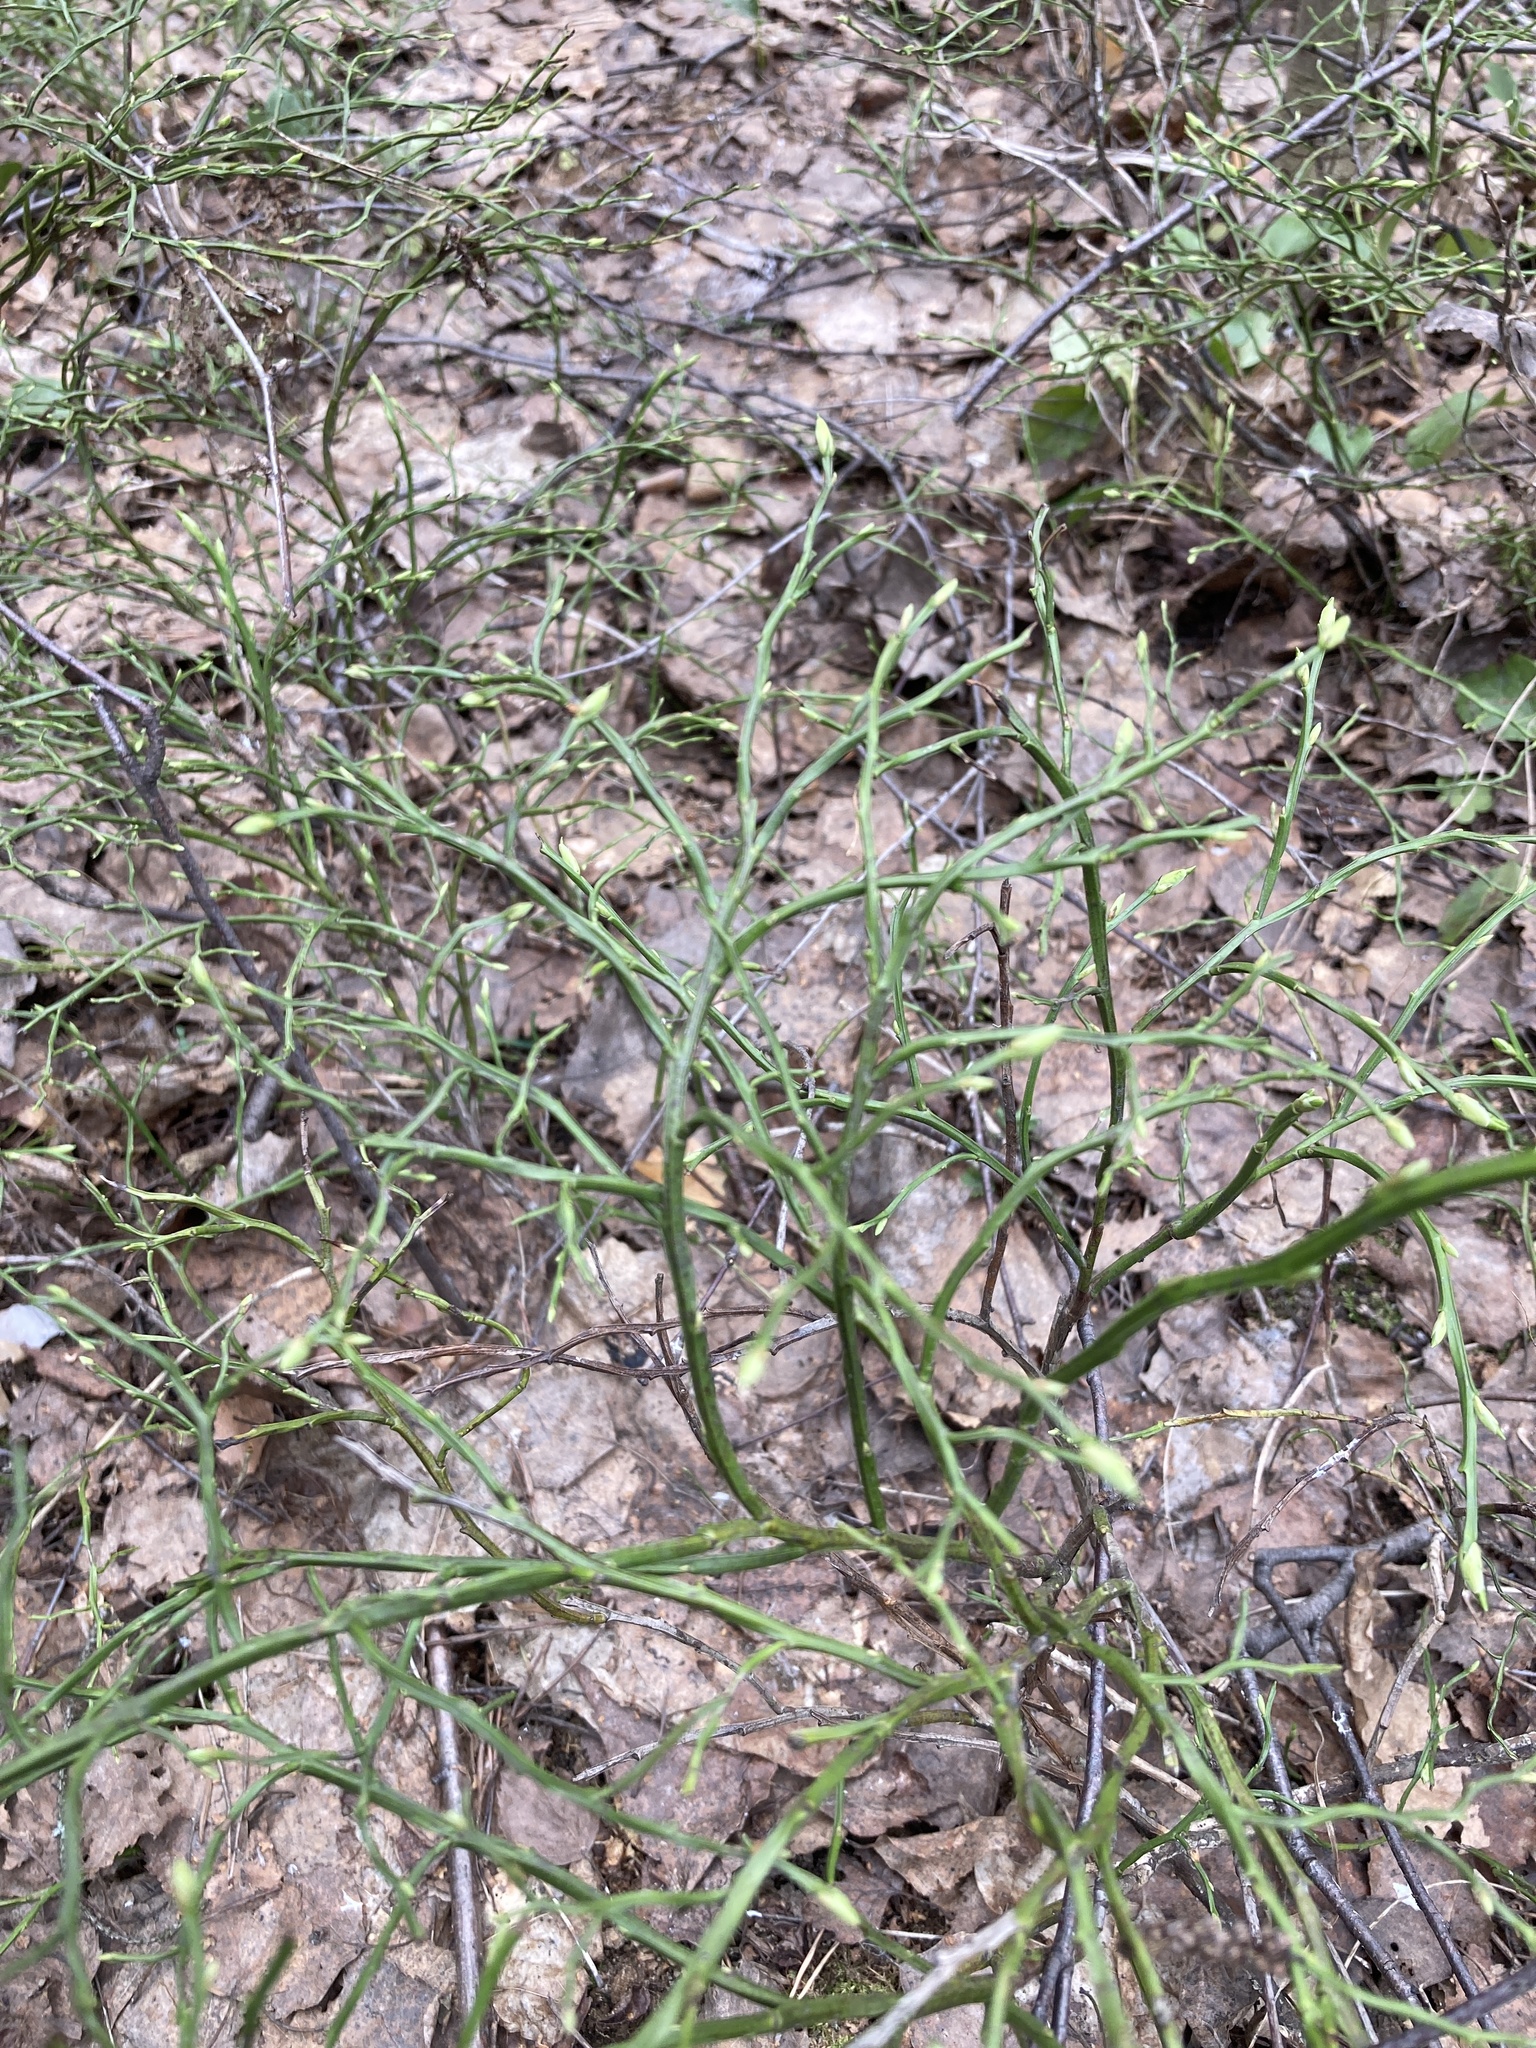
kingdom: Plantae
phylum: Tracheophyta
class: Magnoliopsida
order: Ericales
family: Ericaceae
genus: Vaccinium
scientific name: Vaccinium myrtillus
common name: Bilberry
